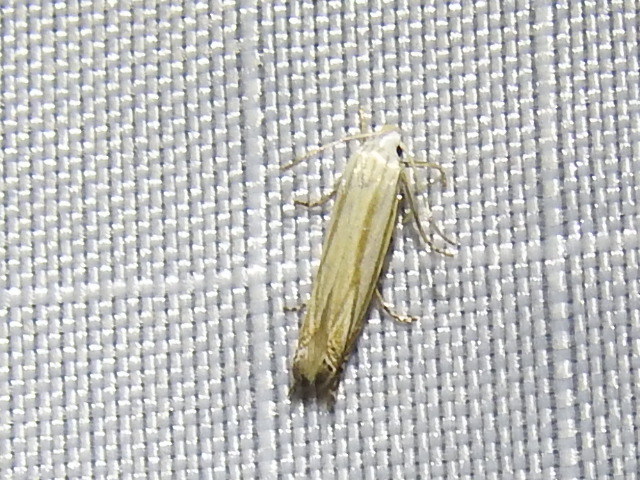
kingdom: Animalia
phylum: Arthropoda
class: Insecta
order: Lepidoptera
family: Gelechiidae
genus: Polyhymno
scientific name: Polyhymno luteostrigella
